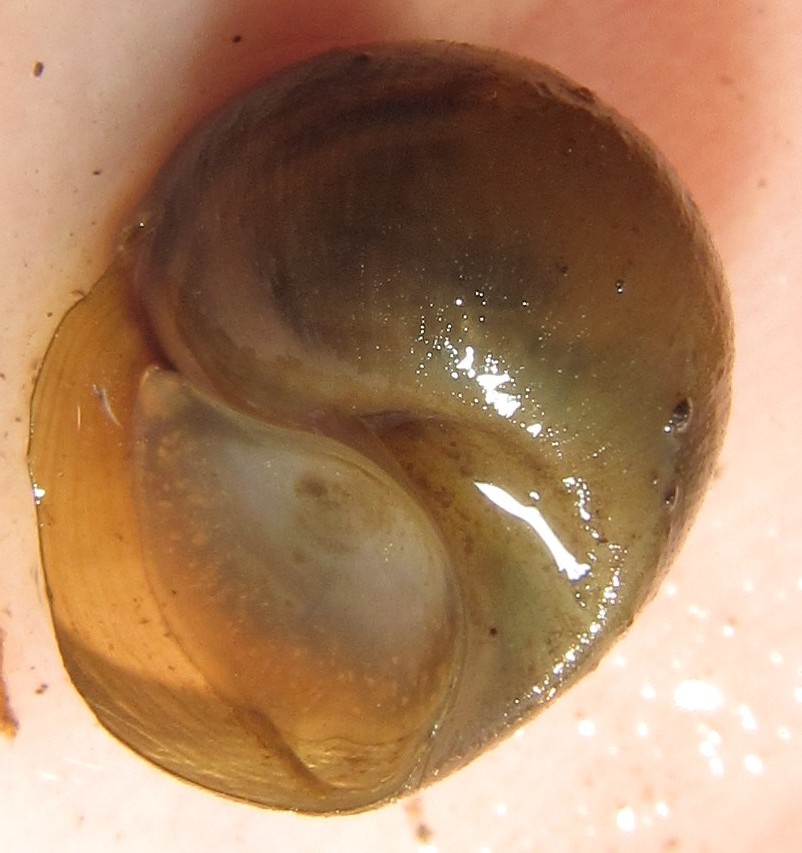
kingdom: Animalia
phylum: Mollusca
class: Gastropoda
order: Architaenioglossa
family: Ampullariidae
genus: Lanistes
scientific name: Lanistes ovum
